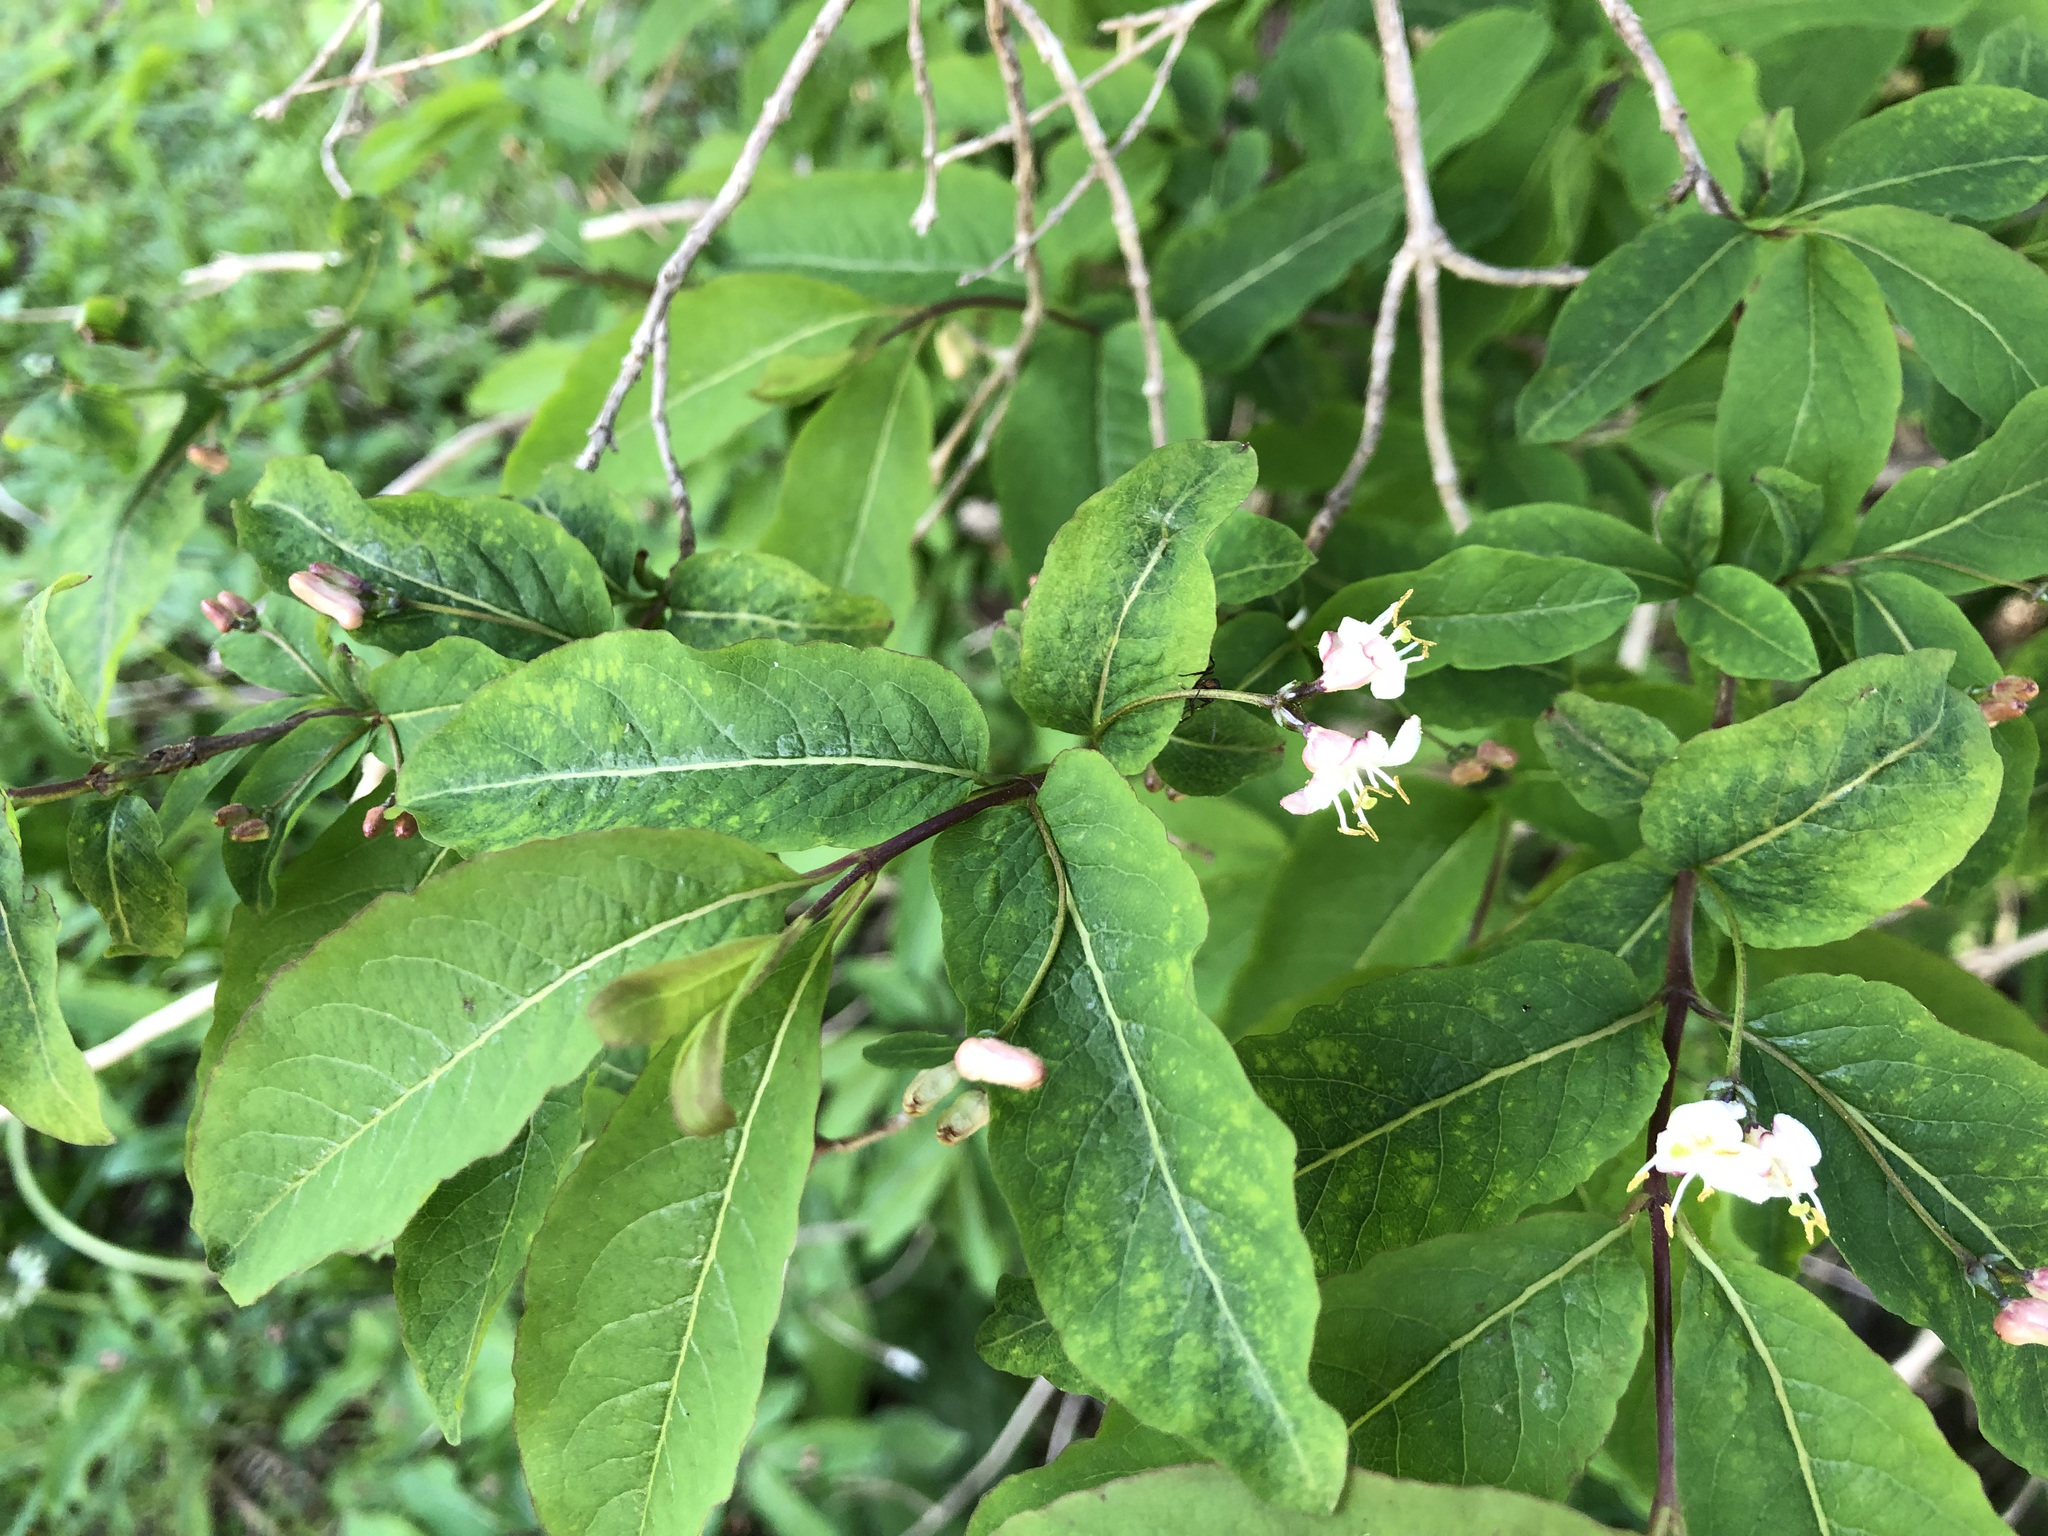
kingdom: Plantae
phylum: Tracheophyta
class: Magnoliopsida
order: Dipsacales
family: Caprifoliaceae
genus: Lonicera
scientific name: Lonicera nigra
